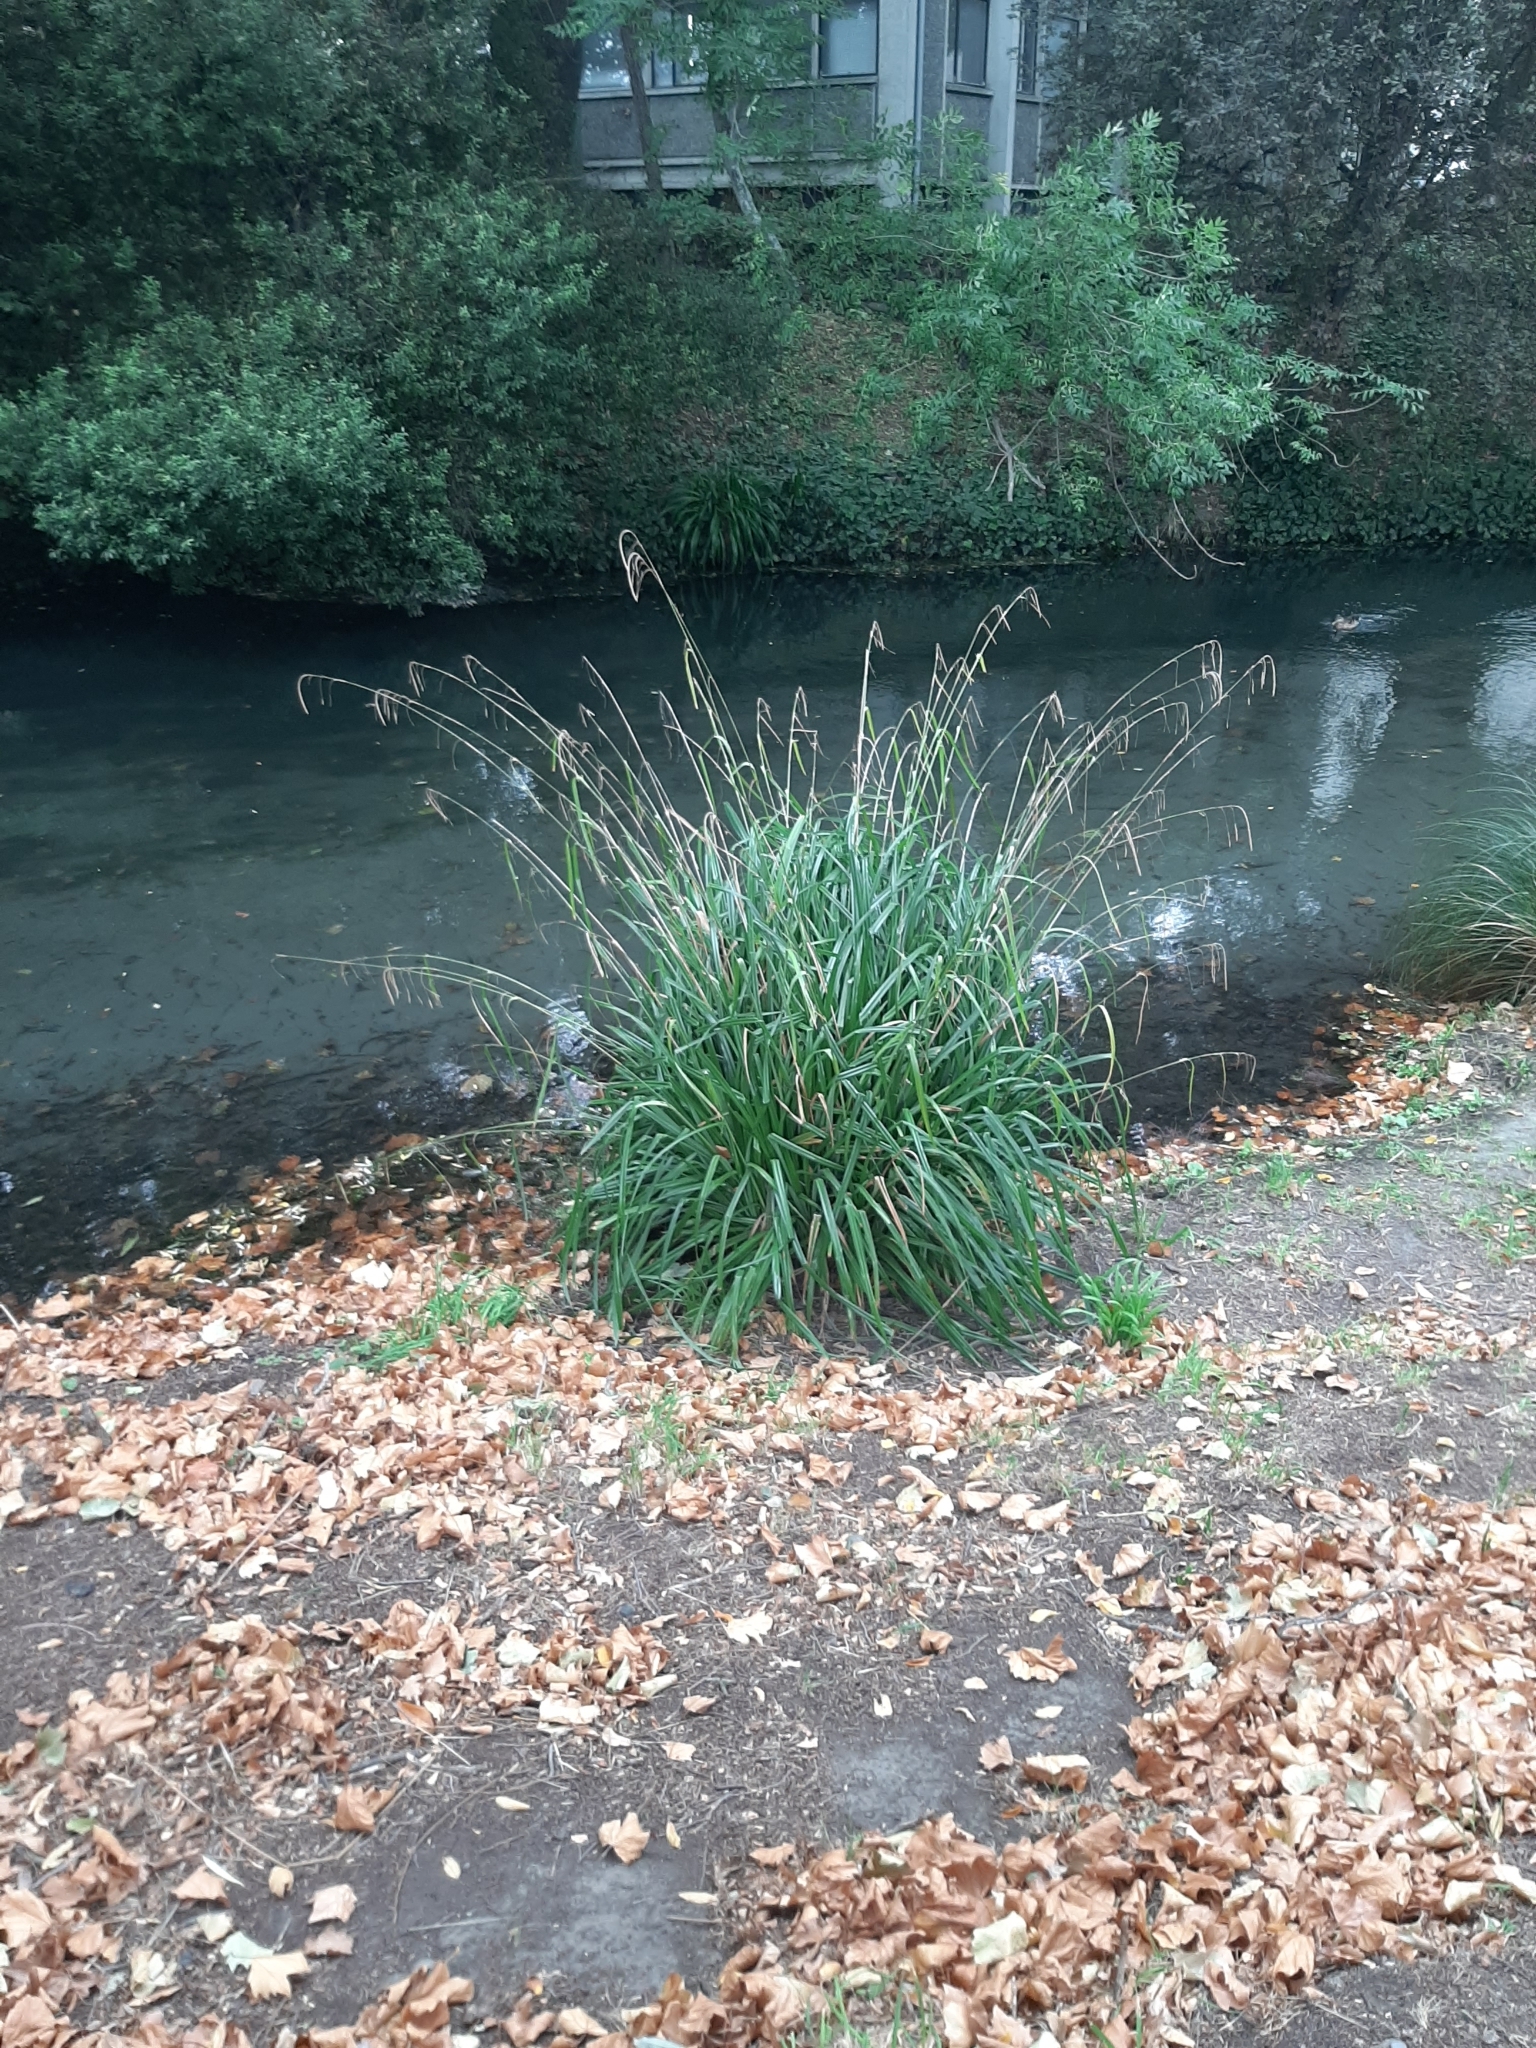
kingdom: Plantae
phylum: Tracheophyta
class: Liliopsida
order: Poales
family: Cyperaceae
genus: Carex
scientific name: Carex pendula
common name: Pendulous sedge
